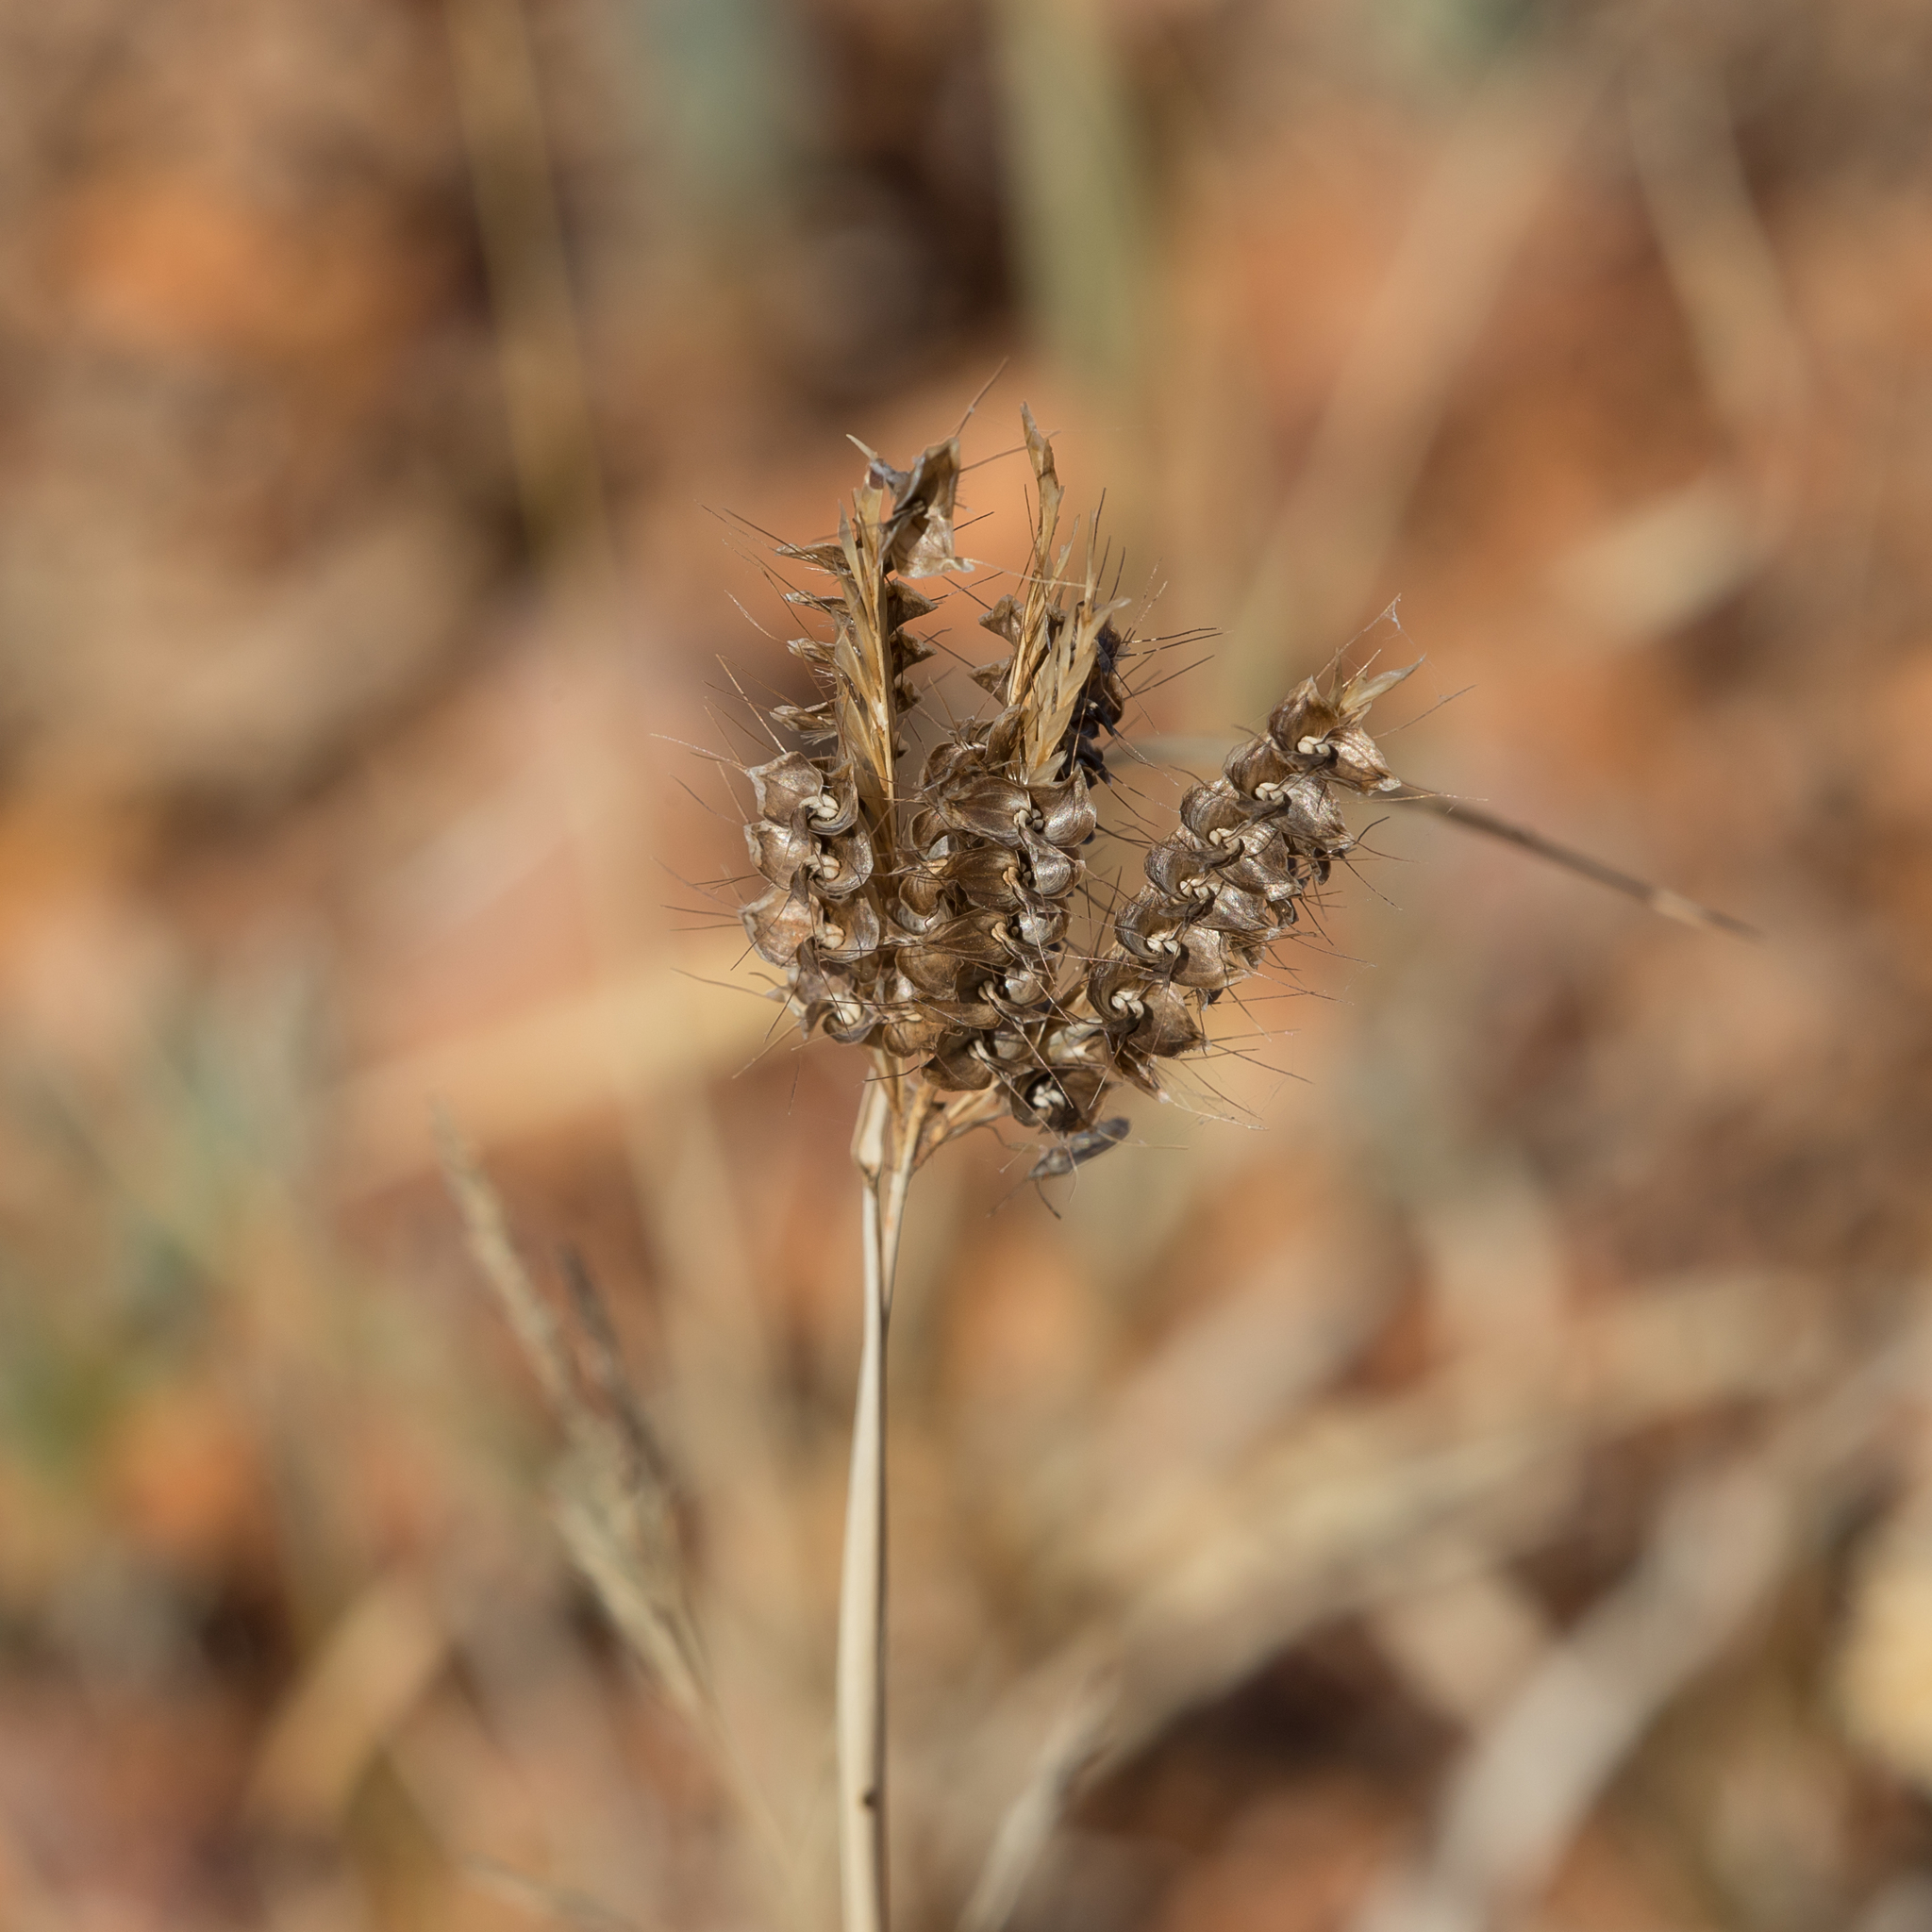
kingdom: Plantae
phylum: Tracheophyta
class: Liliopsida
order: Poales
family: Poaceae
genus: Oxychloris
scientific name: Oxychloris scariosa
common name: Winged windmill grass
